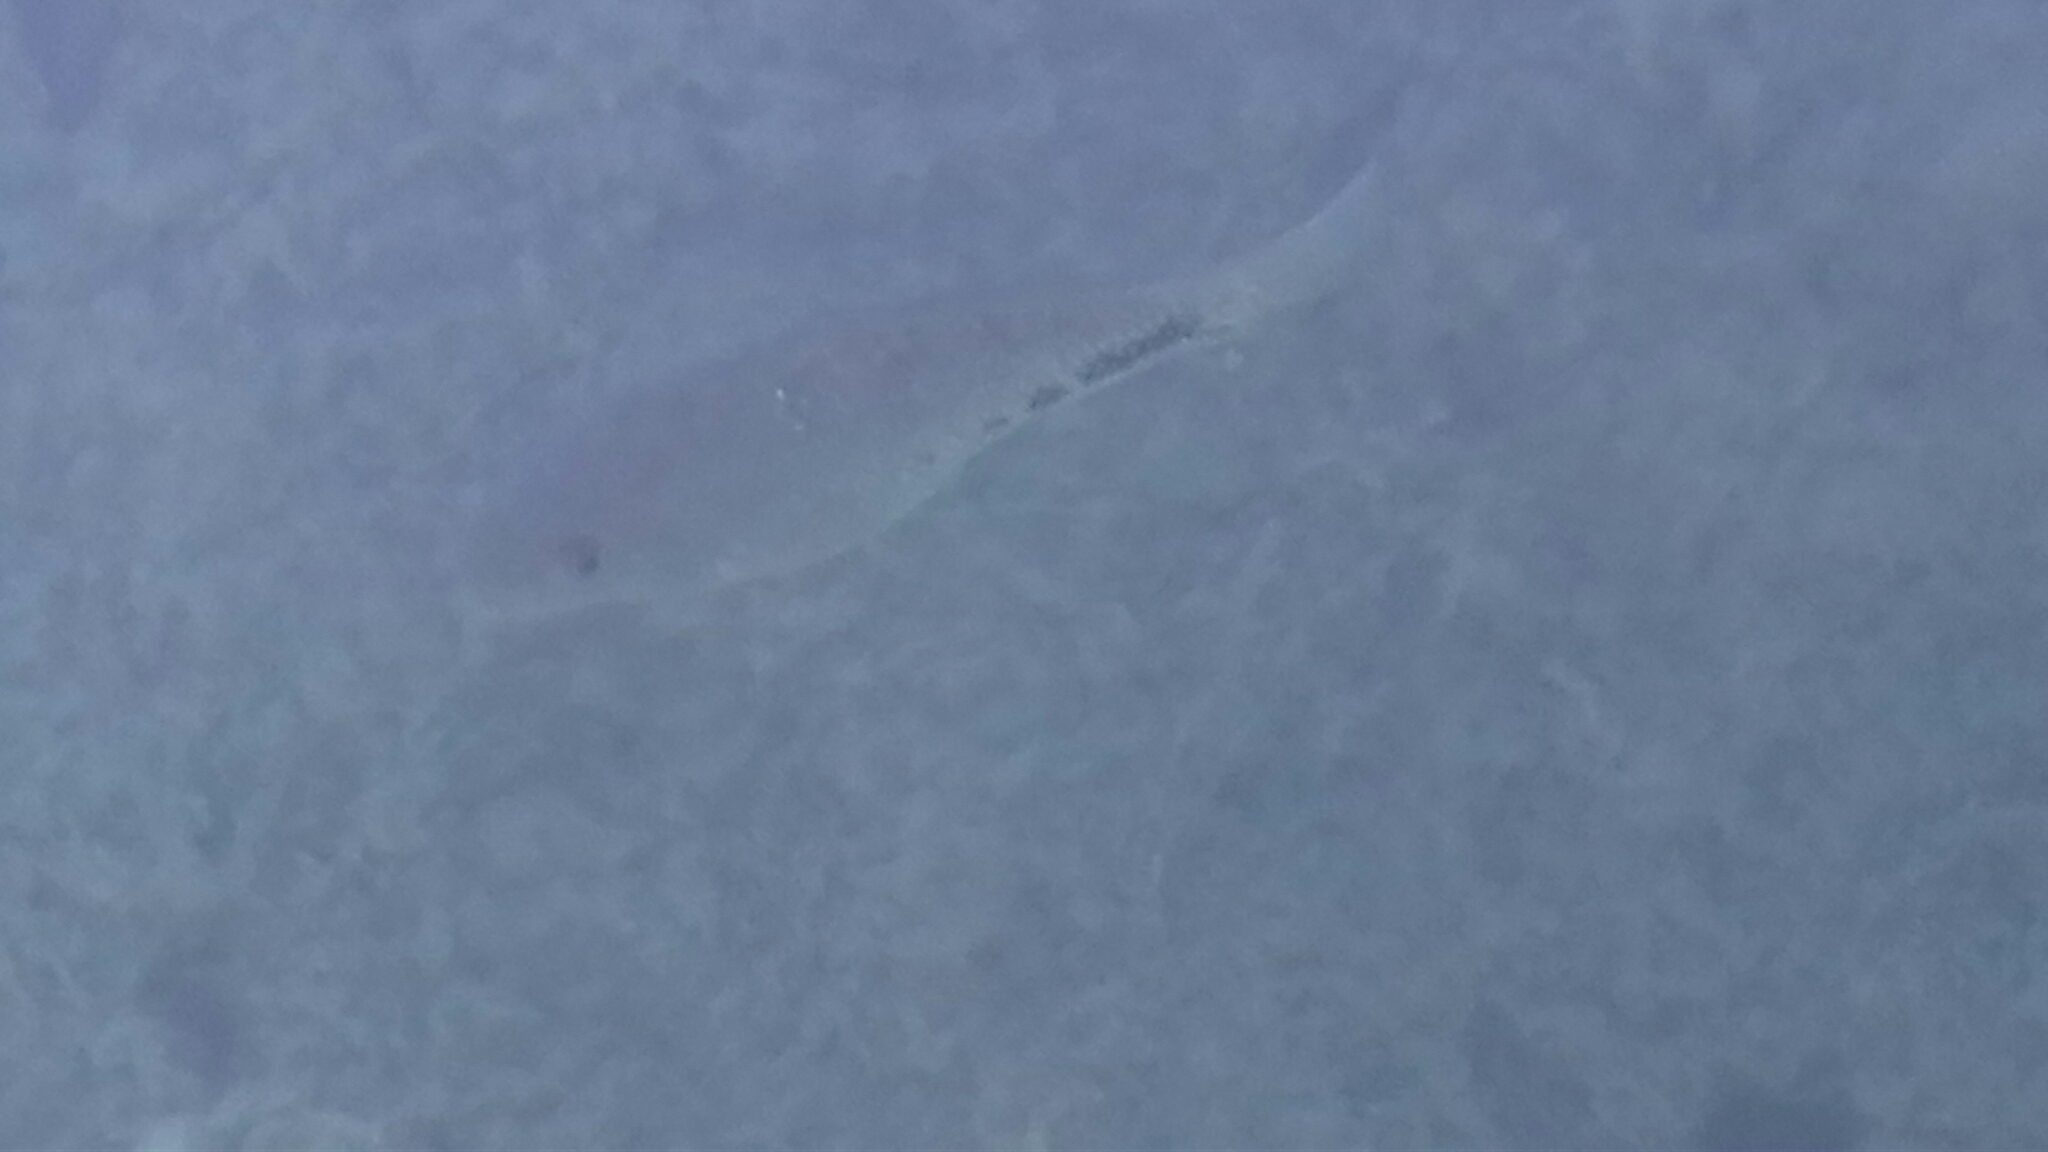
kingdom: Animalia
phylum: Chordata
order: Perciformes
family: Cichlidae
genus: Vieja
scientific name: Vieja melanura
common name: Redhead cichlid
